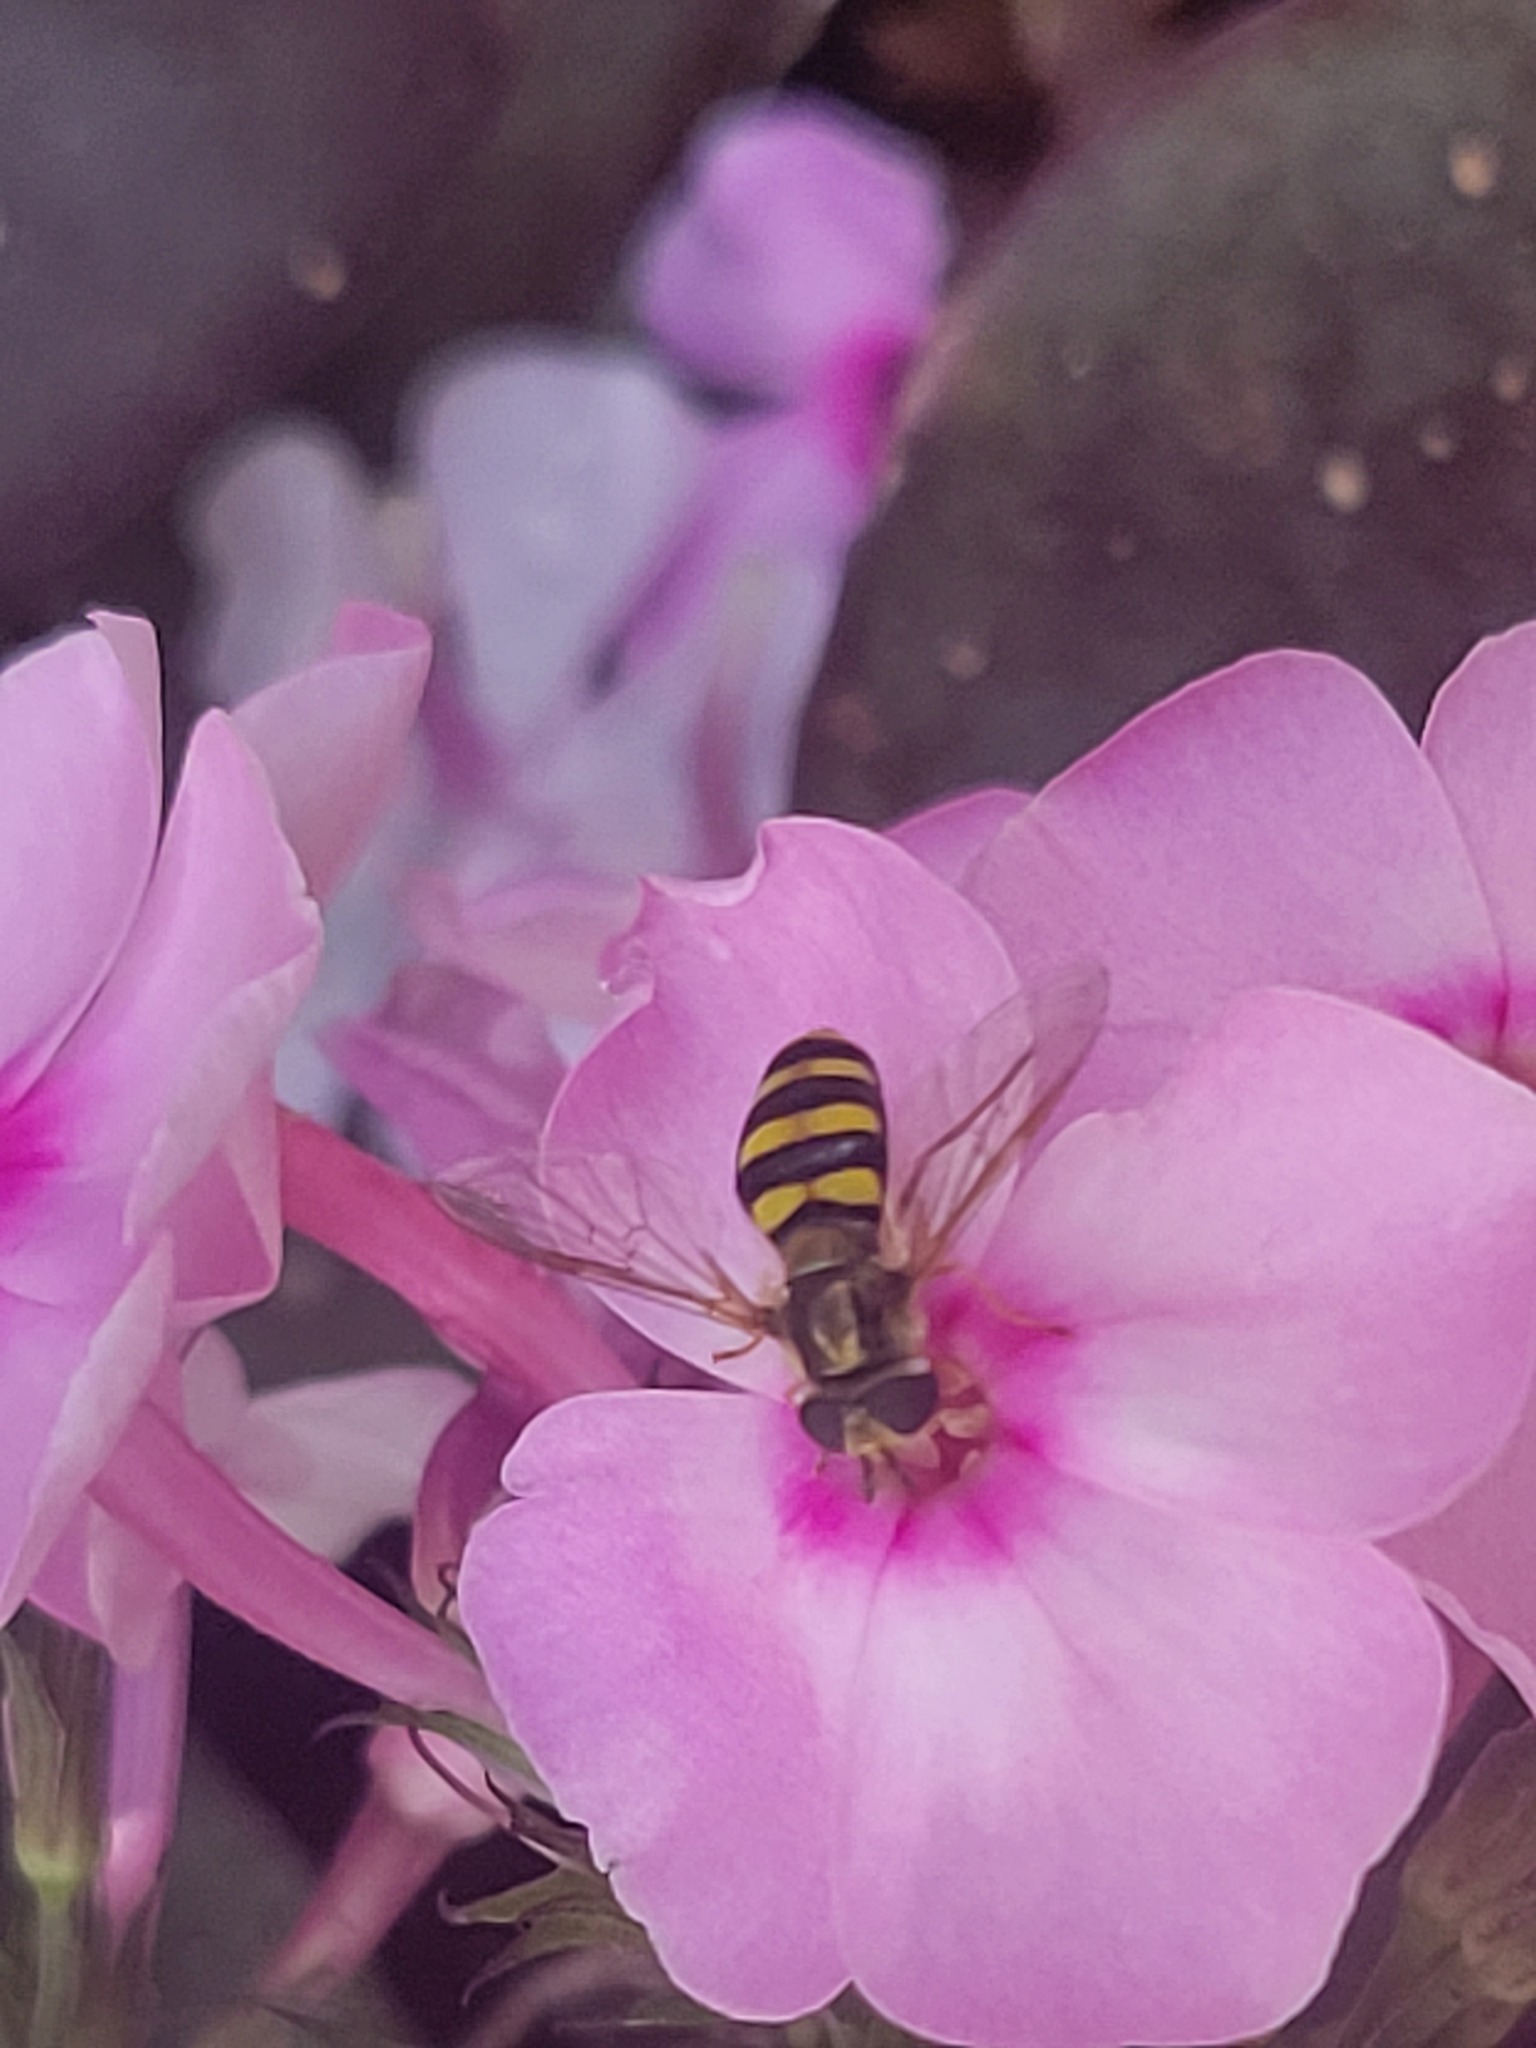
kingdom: Animalia
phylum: Arthropoda
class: Insecta
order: Diptera
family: Syrphidae
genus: Eupeodes
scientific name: Eupeodes
